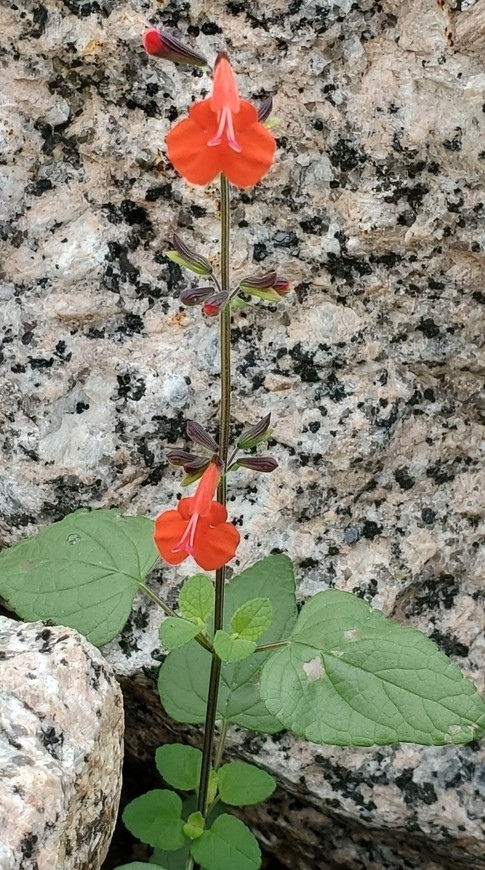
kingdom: Plantae
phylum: Tracheophyta
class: Magnoliopsida
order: Lamiales
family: Lamiaceae
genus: Salvia
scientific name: Salvia coccinea
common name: Blood sage
